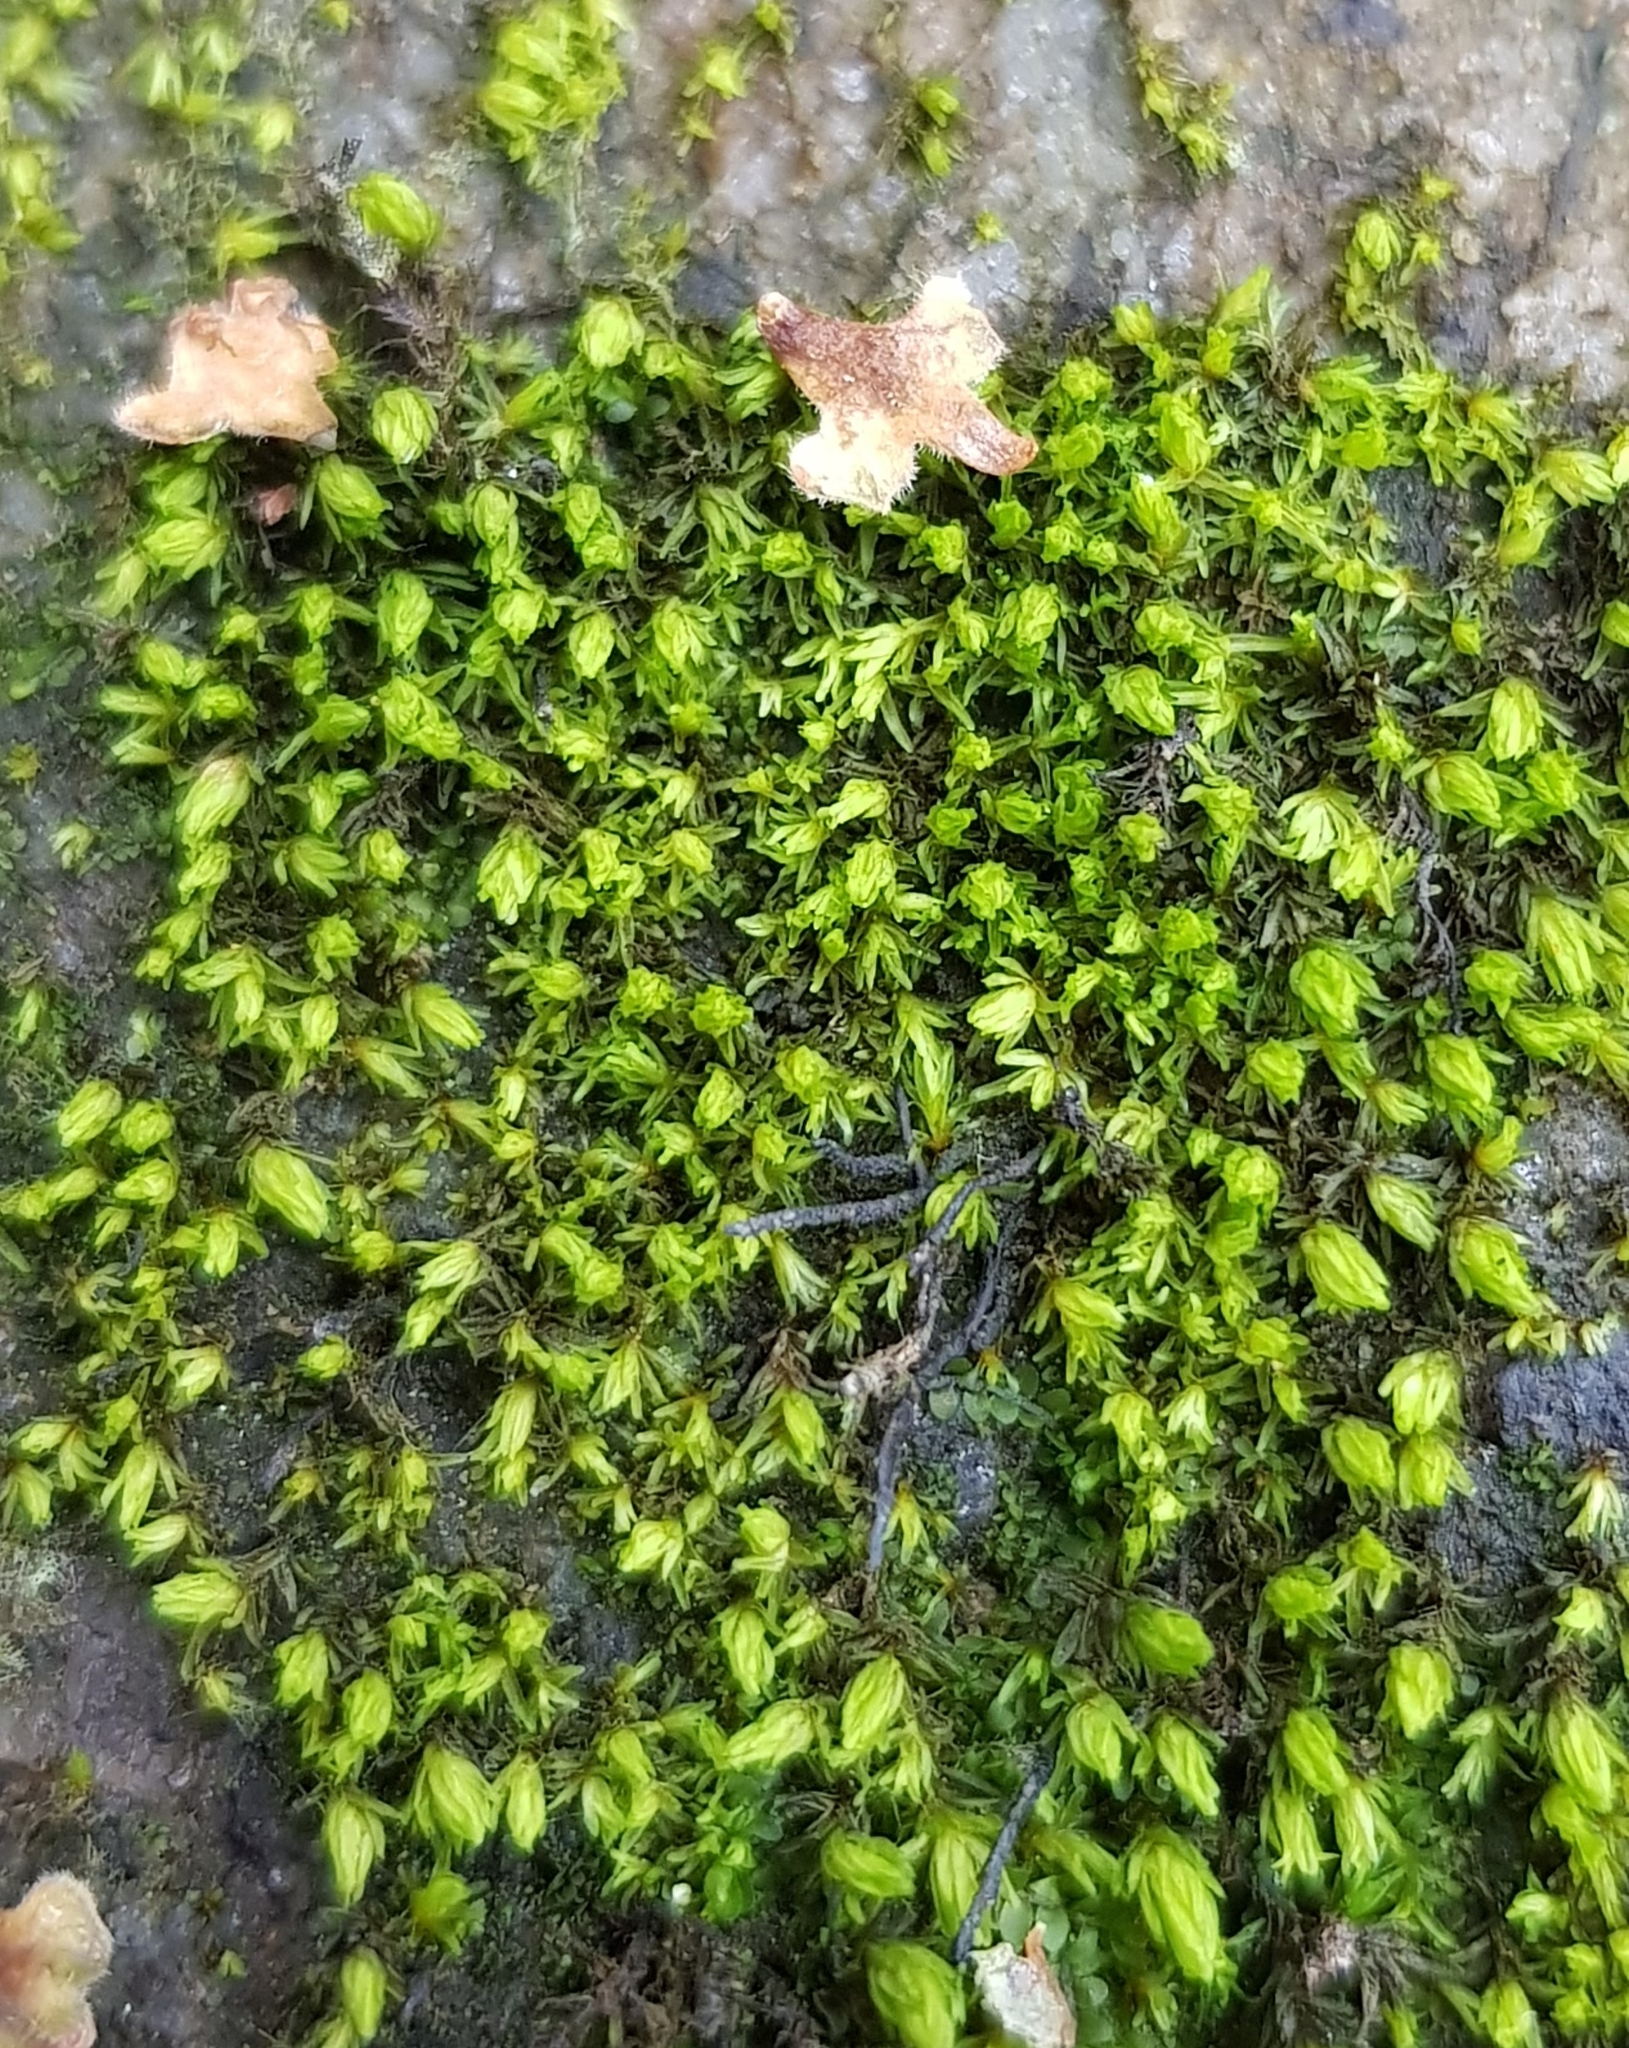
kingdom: Plantae
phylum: Bryophyta
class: Bryopsida
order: Grimmiales
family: Grimmiaceae
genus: Codriophorus
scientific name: Codriophorus acicularis
